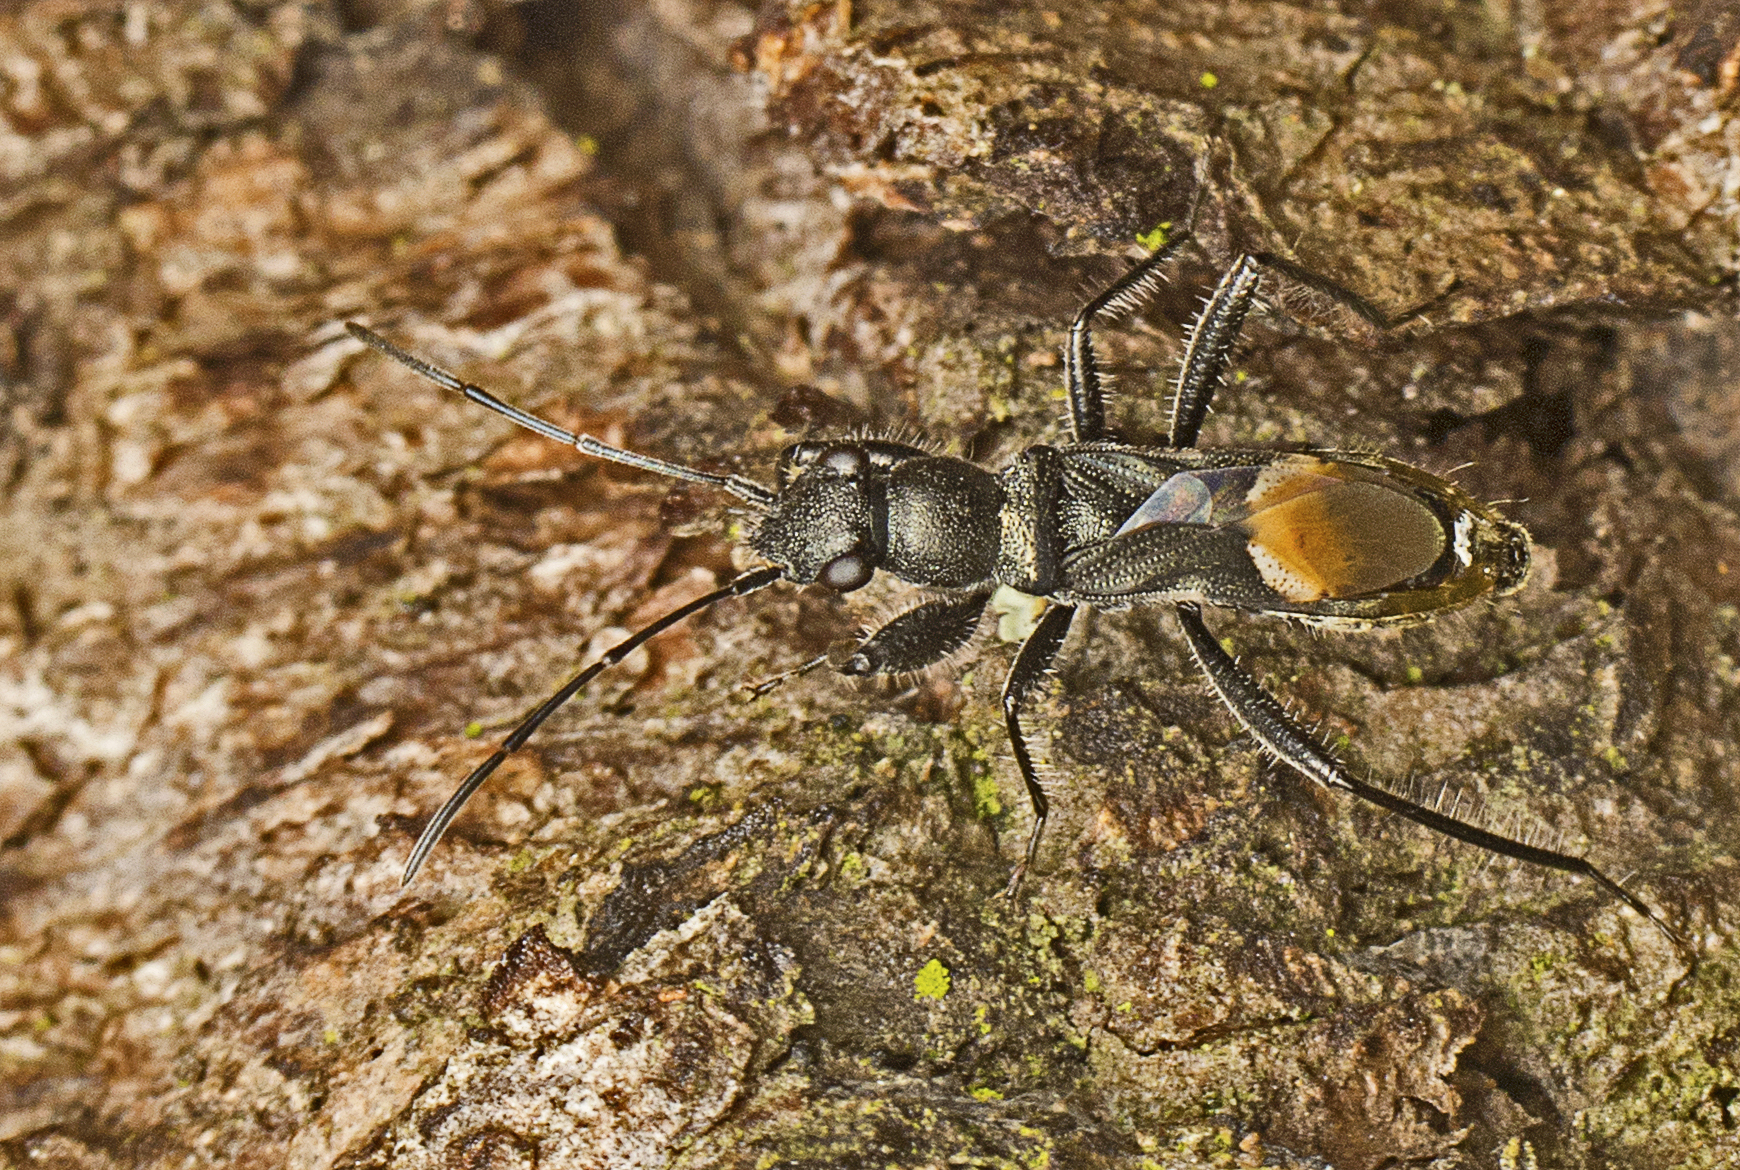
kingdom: Animalia
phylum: Arthropoda
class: Insecta
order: Hemiptera
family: Rhyparochromidae
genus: Daerlac
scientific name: Daerlac nigricans
